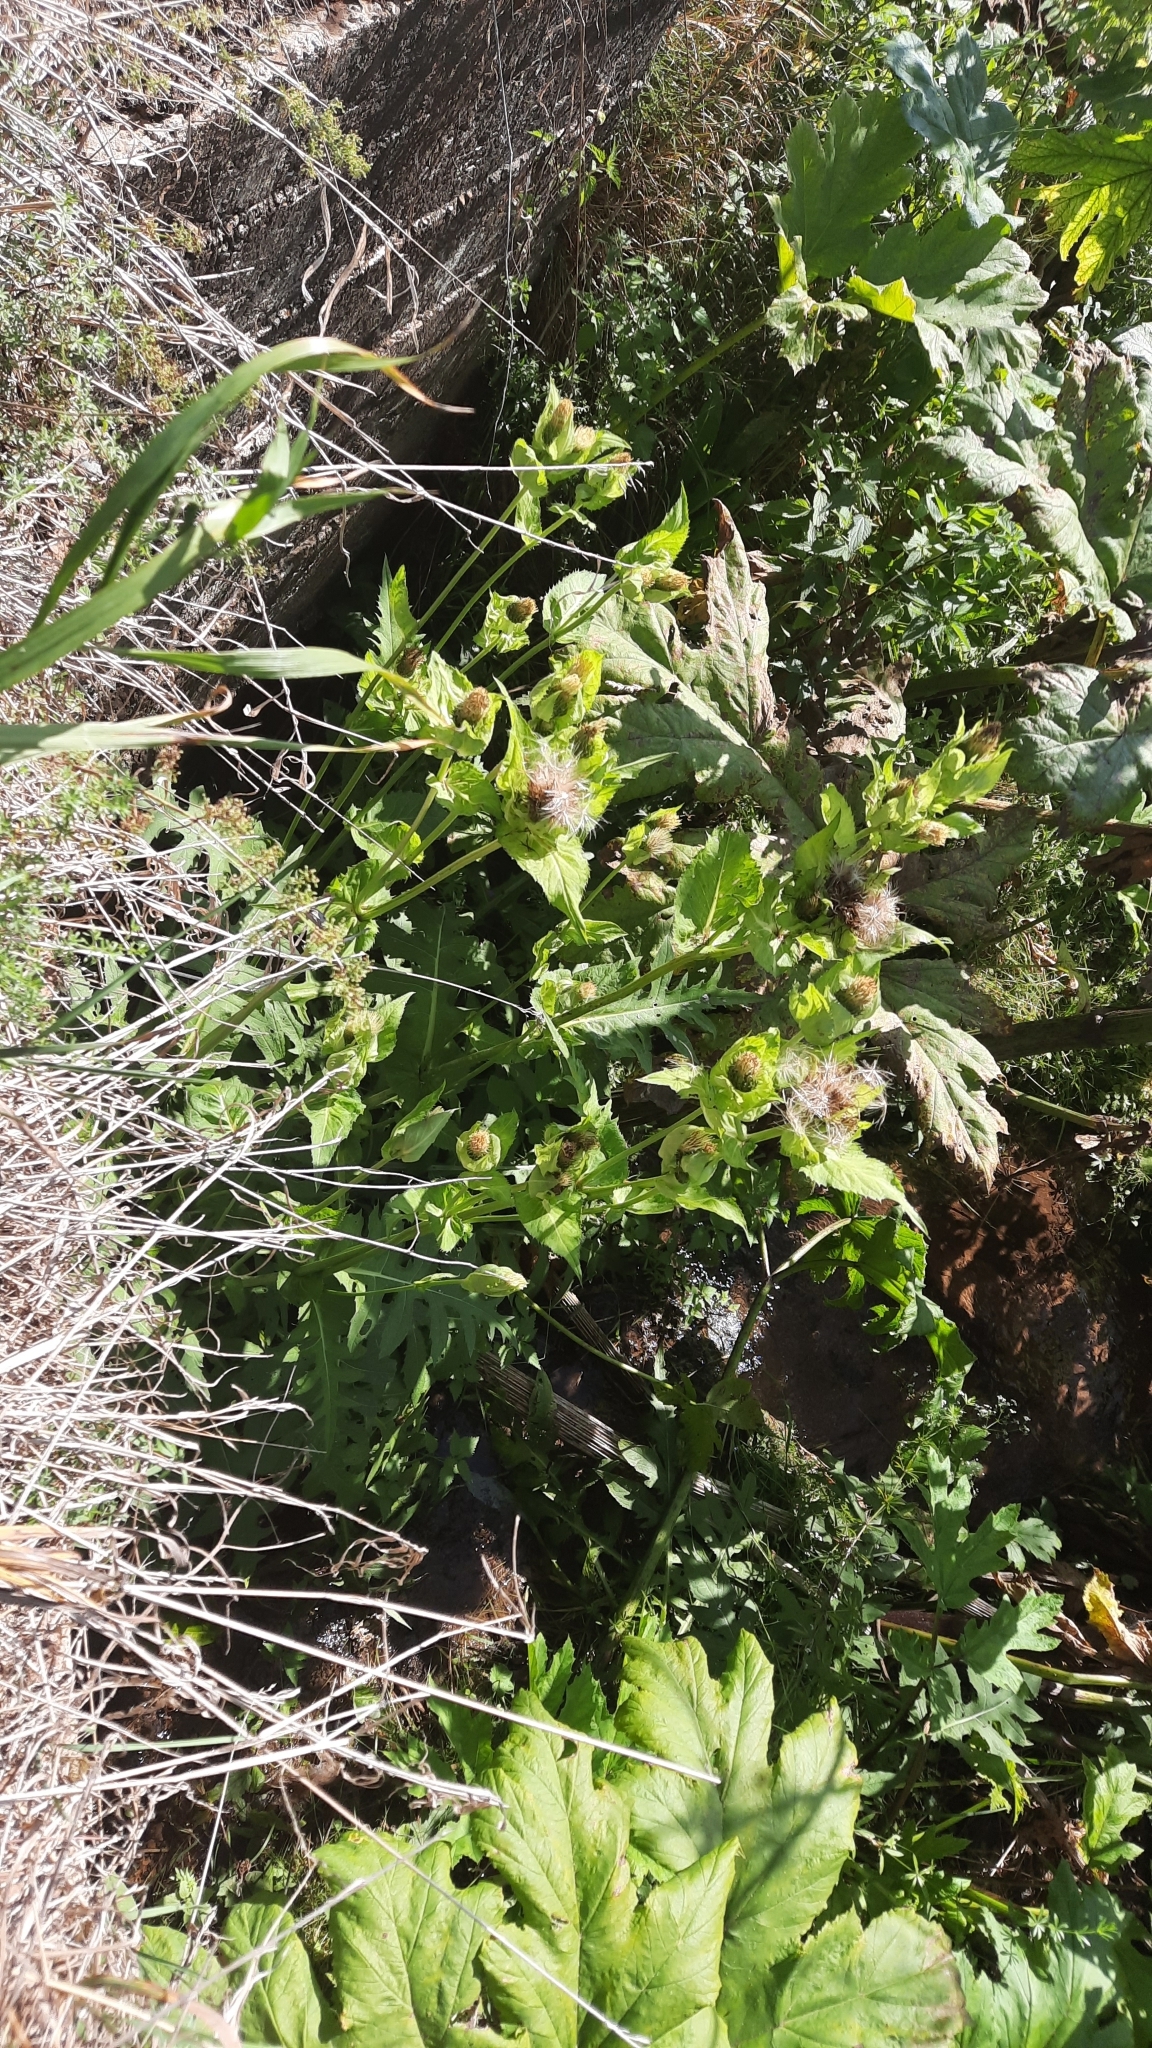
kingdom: Plantae
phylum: Tracheophyta
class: Magnoliopsida
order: Asterales
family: Asteraceae
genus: Cirsium
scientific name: Cirsium oleraceum
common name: Cabbage thistle
